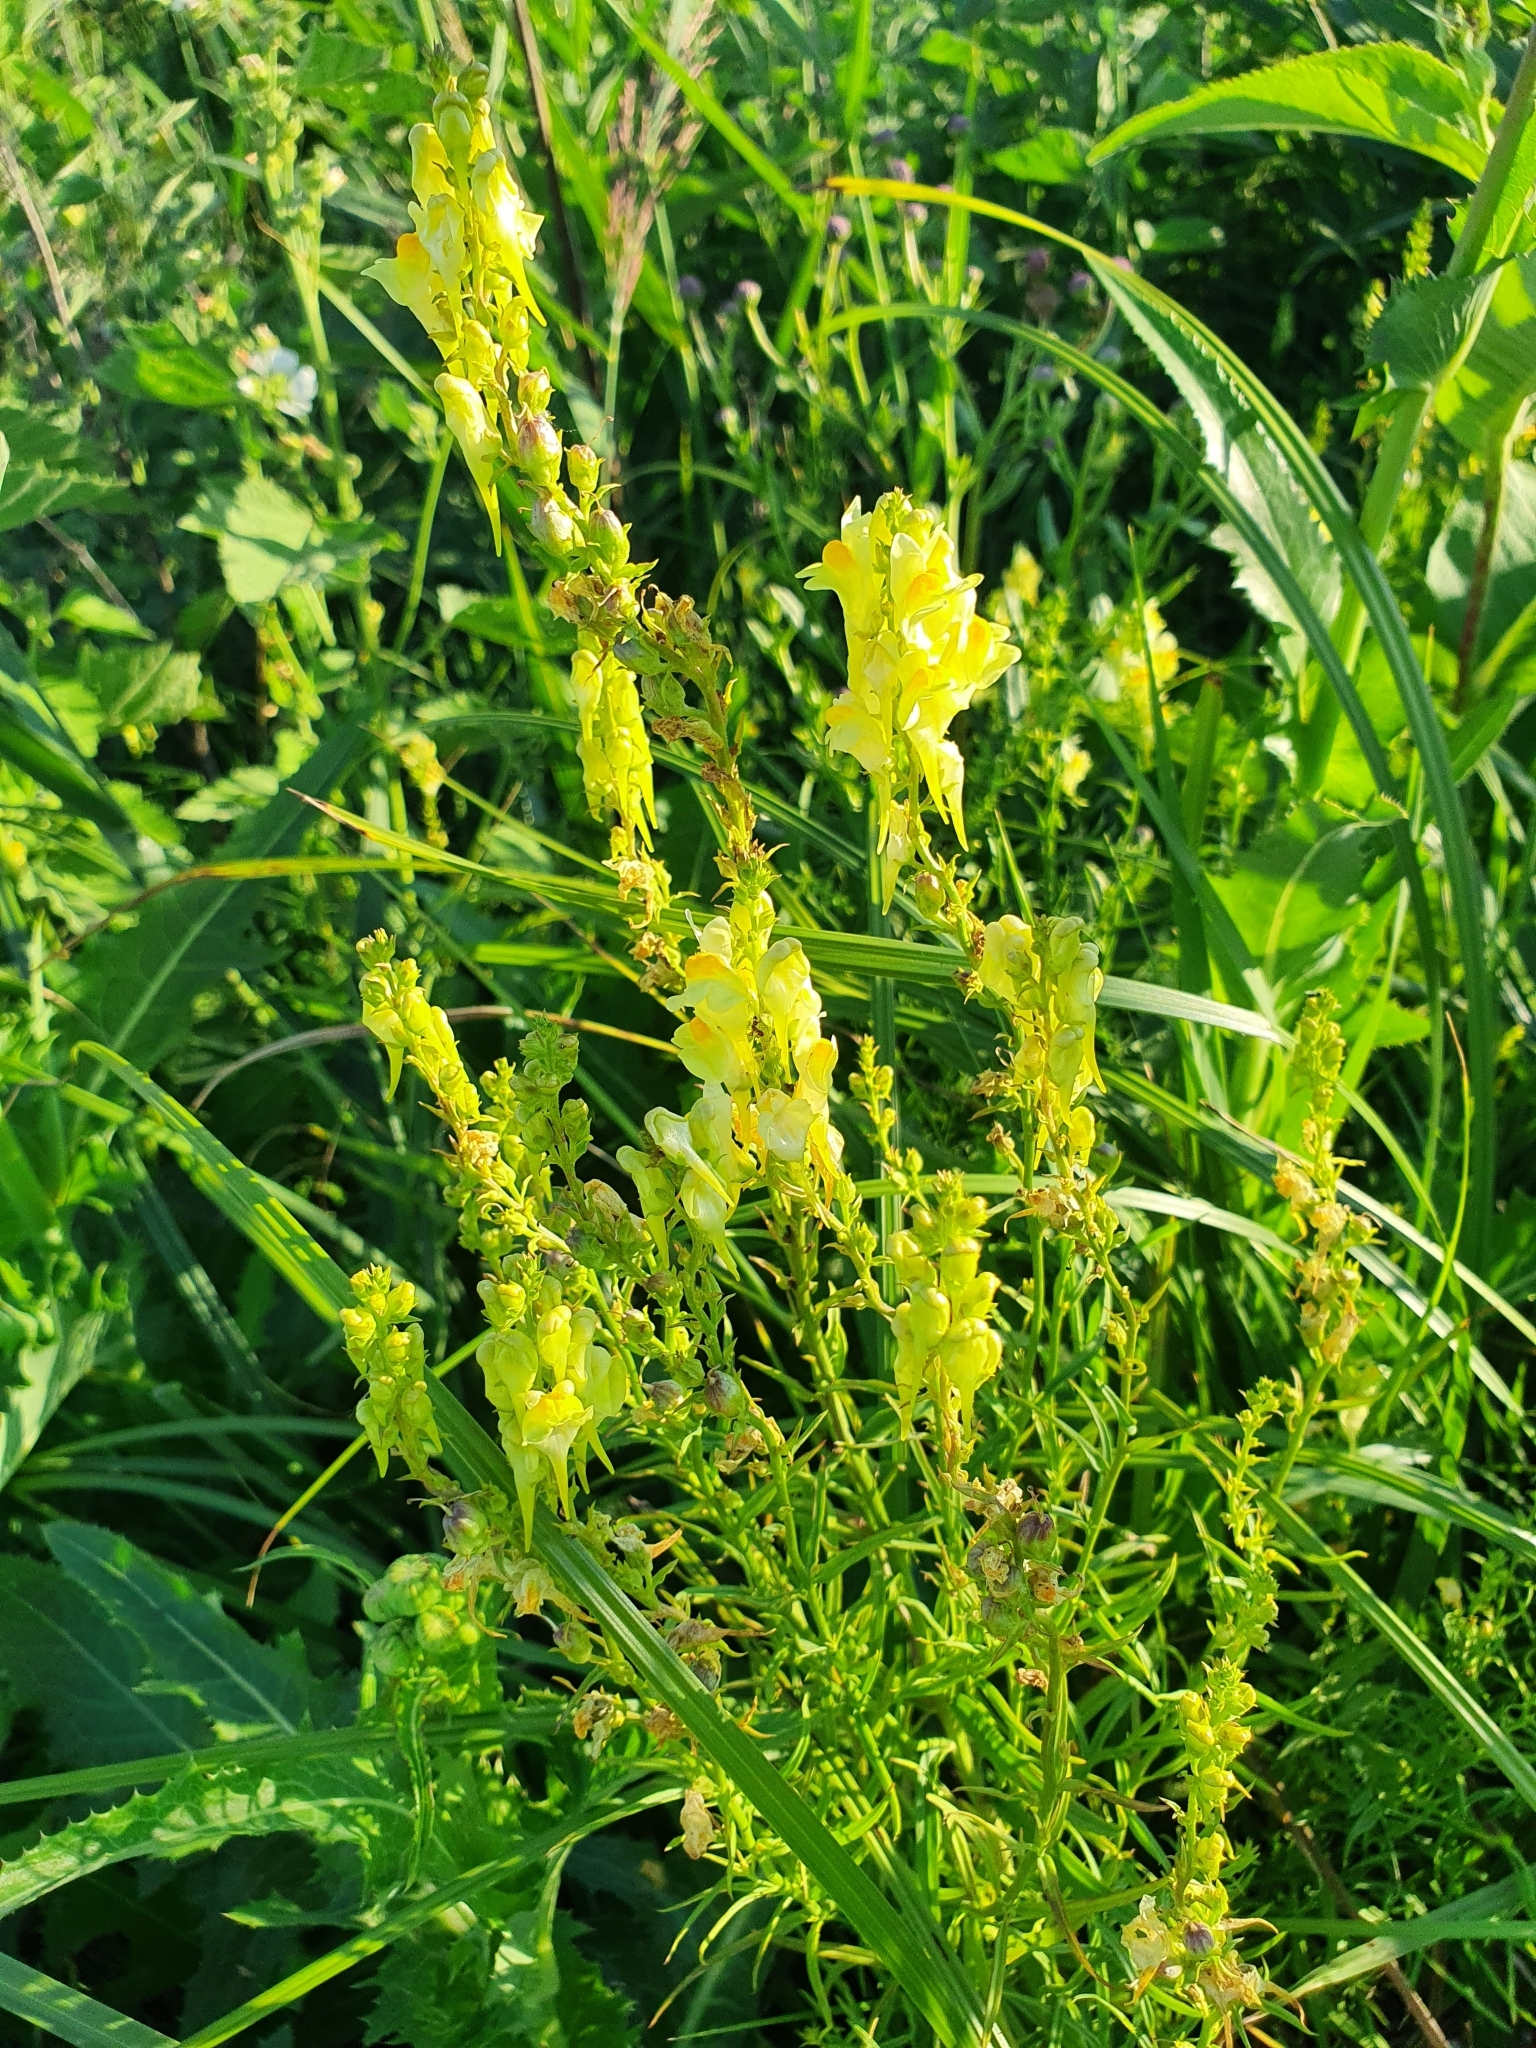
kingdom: Plantae
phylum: Tracheophyta
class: Magnoliopsida
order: Lamiales
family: Plantaginaceae
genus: Linaria
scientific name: Linaria vulgaris
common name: Butter and eggs
